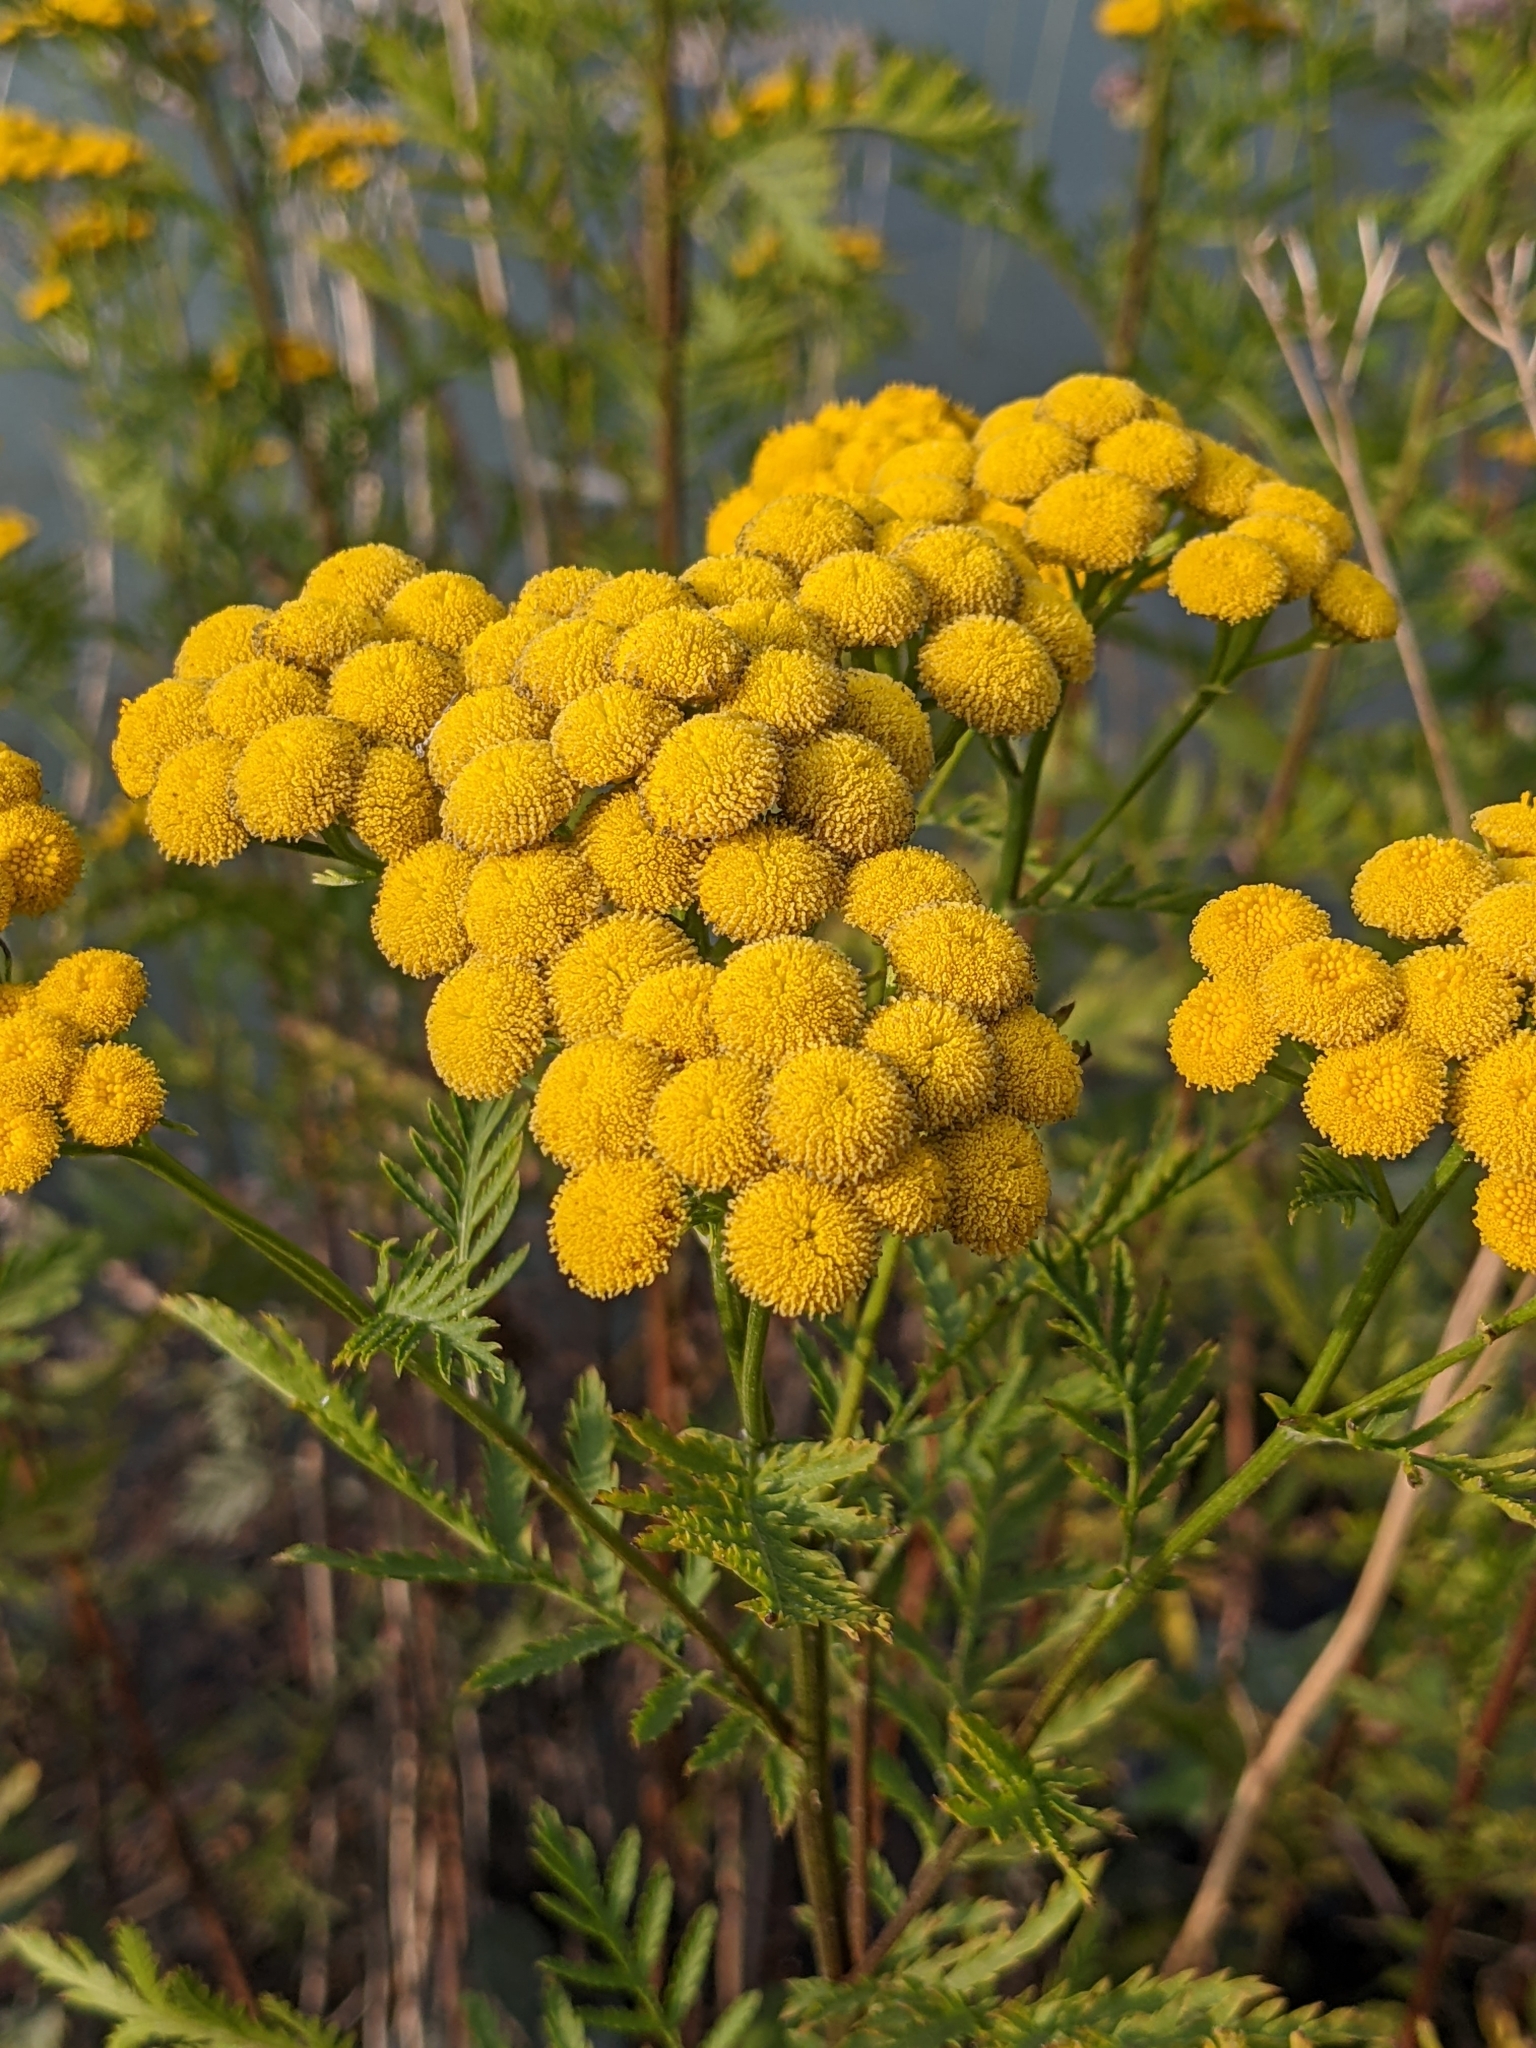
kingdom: Plantae
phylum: Tracheophyta
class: Magnoliopsida
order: Asterales
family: Asteraceae
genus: Tanacetum
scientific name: Tanacetum vulgare
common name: Common tansy
